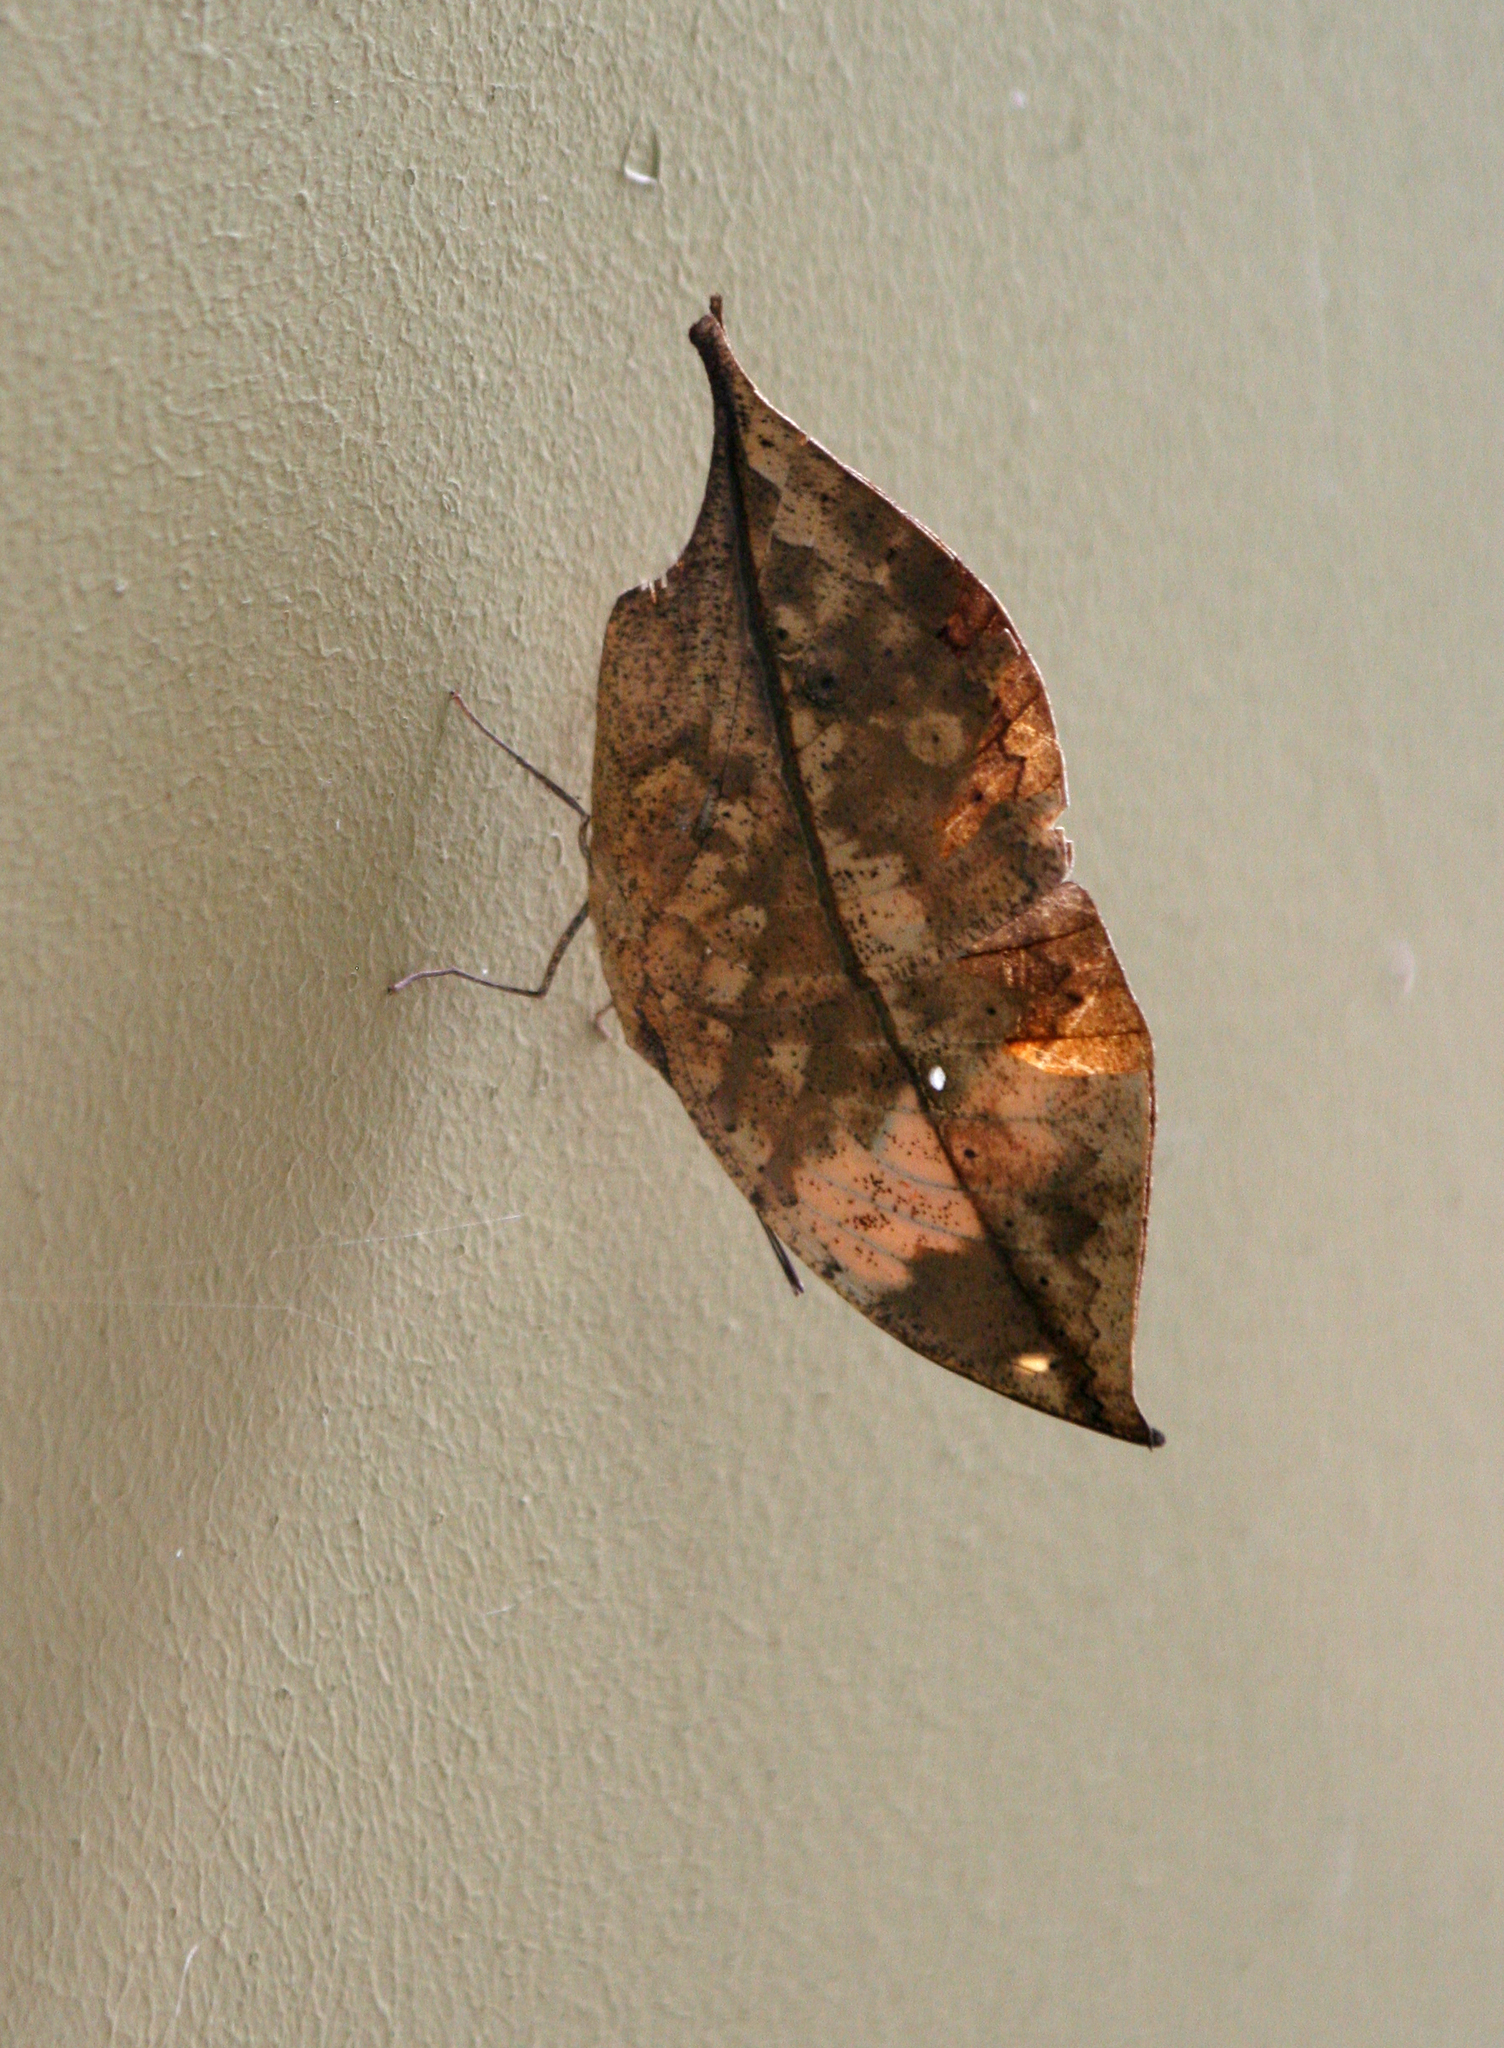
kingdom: Animalia
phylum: Arthropoda
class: Insecta
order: Lepidoptera
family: Nymphalidae
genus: Kallima
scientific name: Kallima inachus
